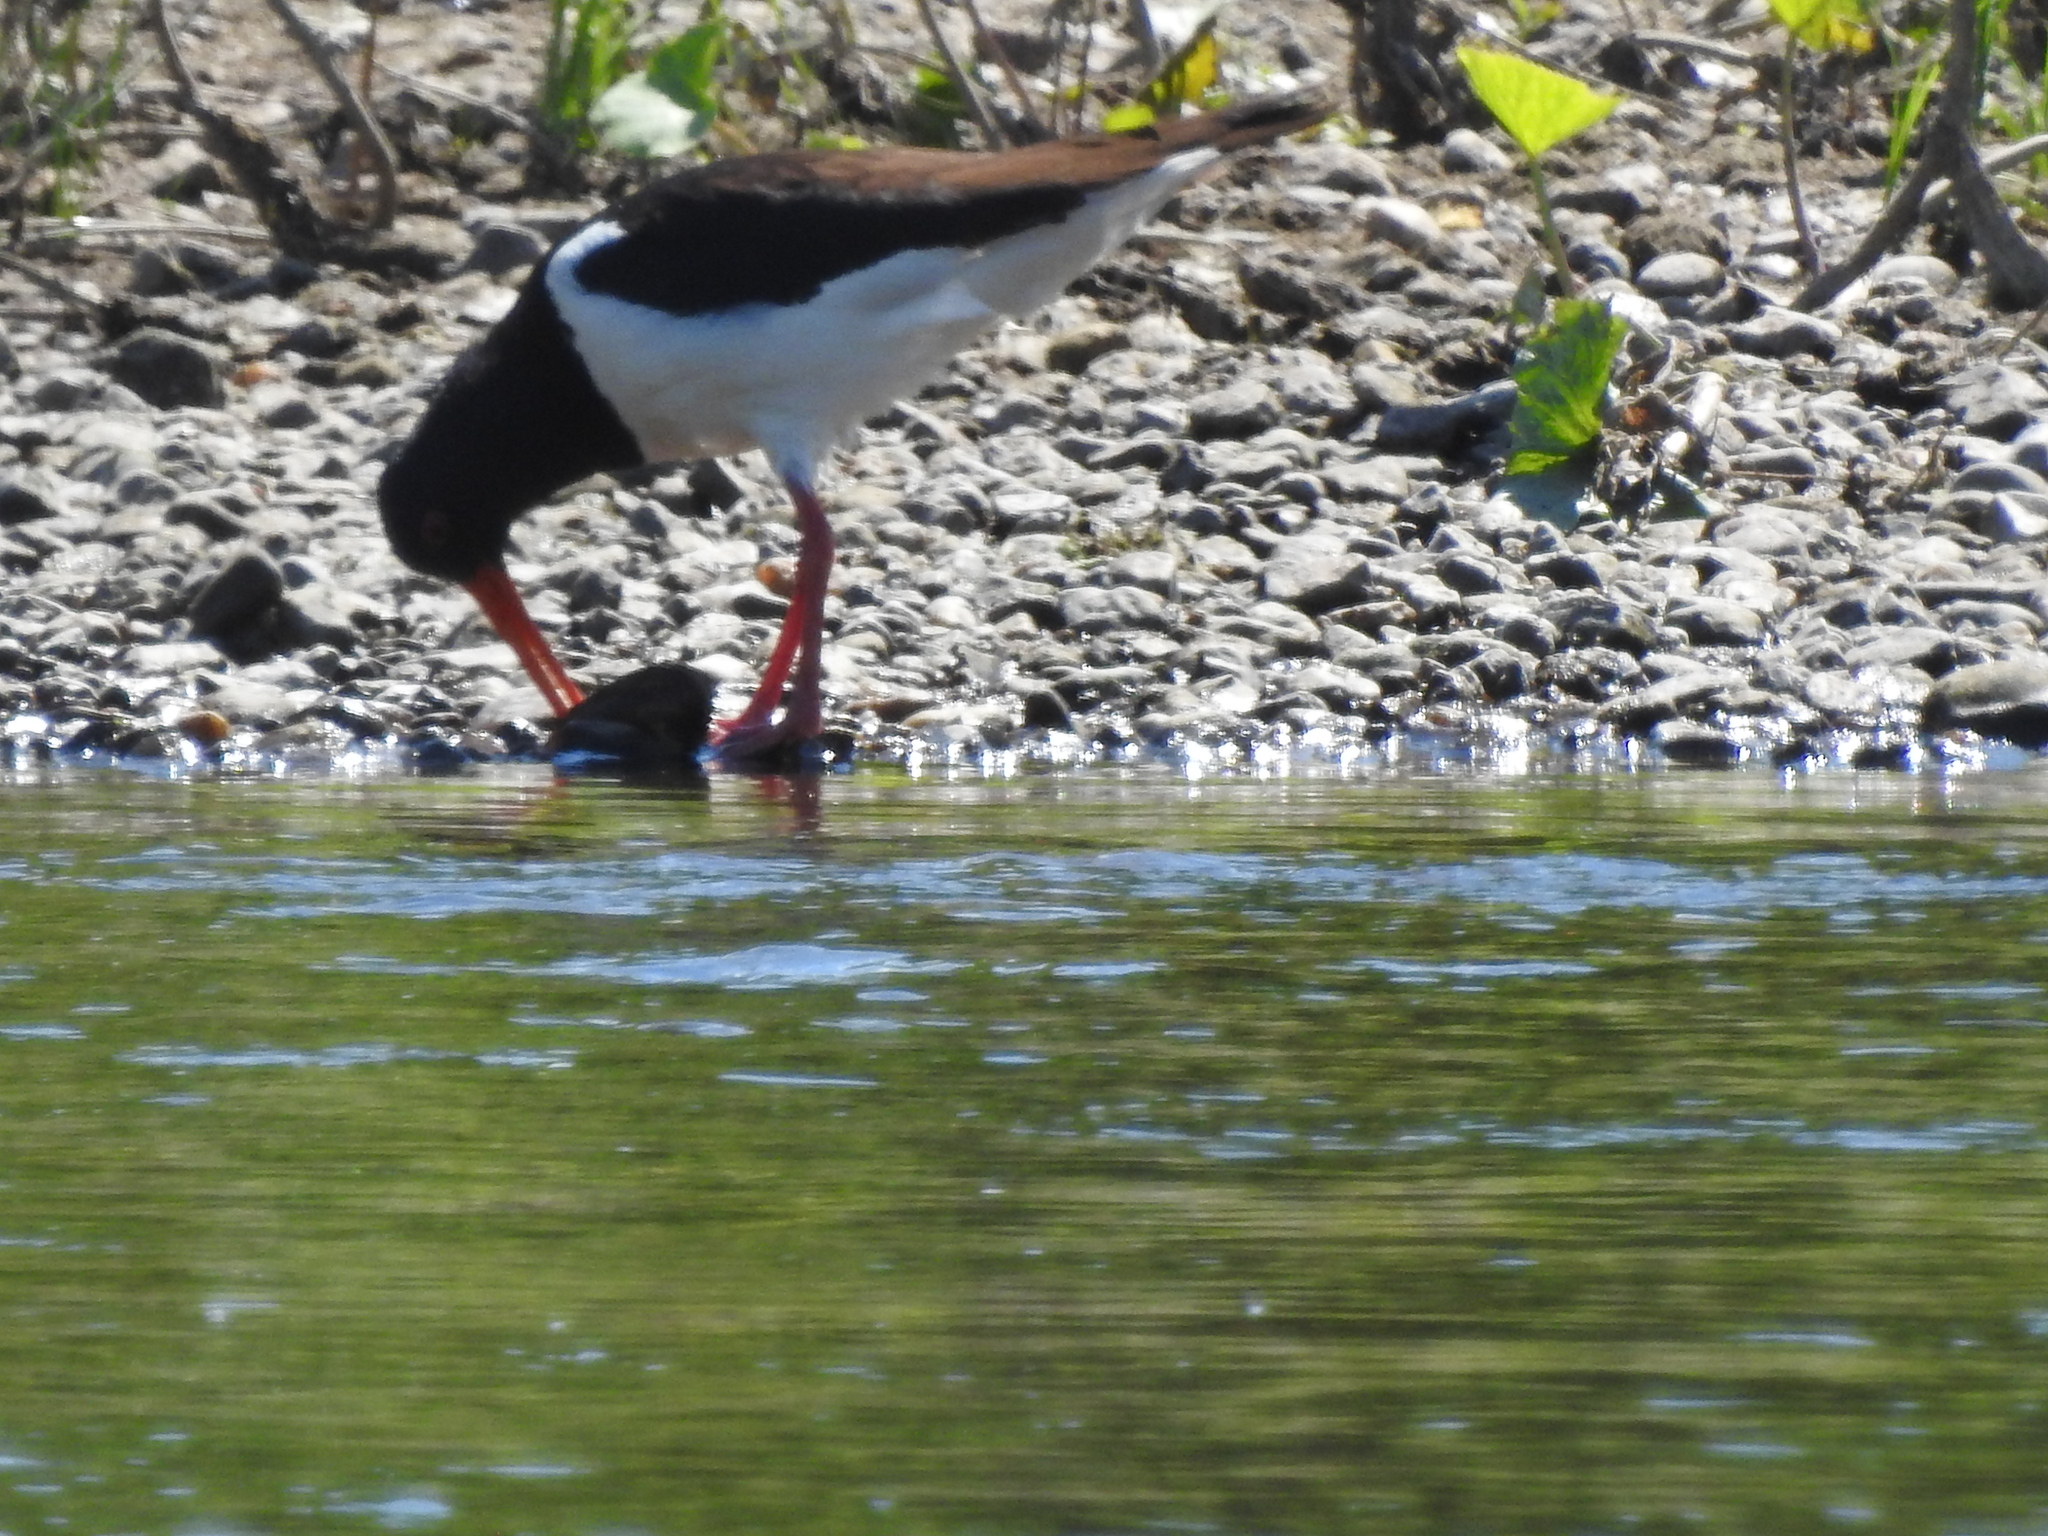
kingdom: Animalia
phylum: Chordata
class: Aves
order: Charadriiformes
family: Haematopodidae
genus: Haematopus
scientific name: Haematopus ostralegus
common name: Eurasian oystercatcher
